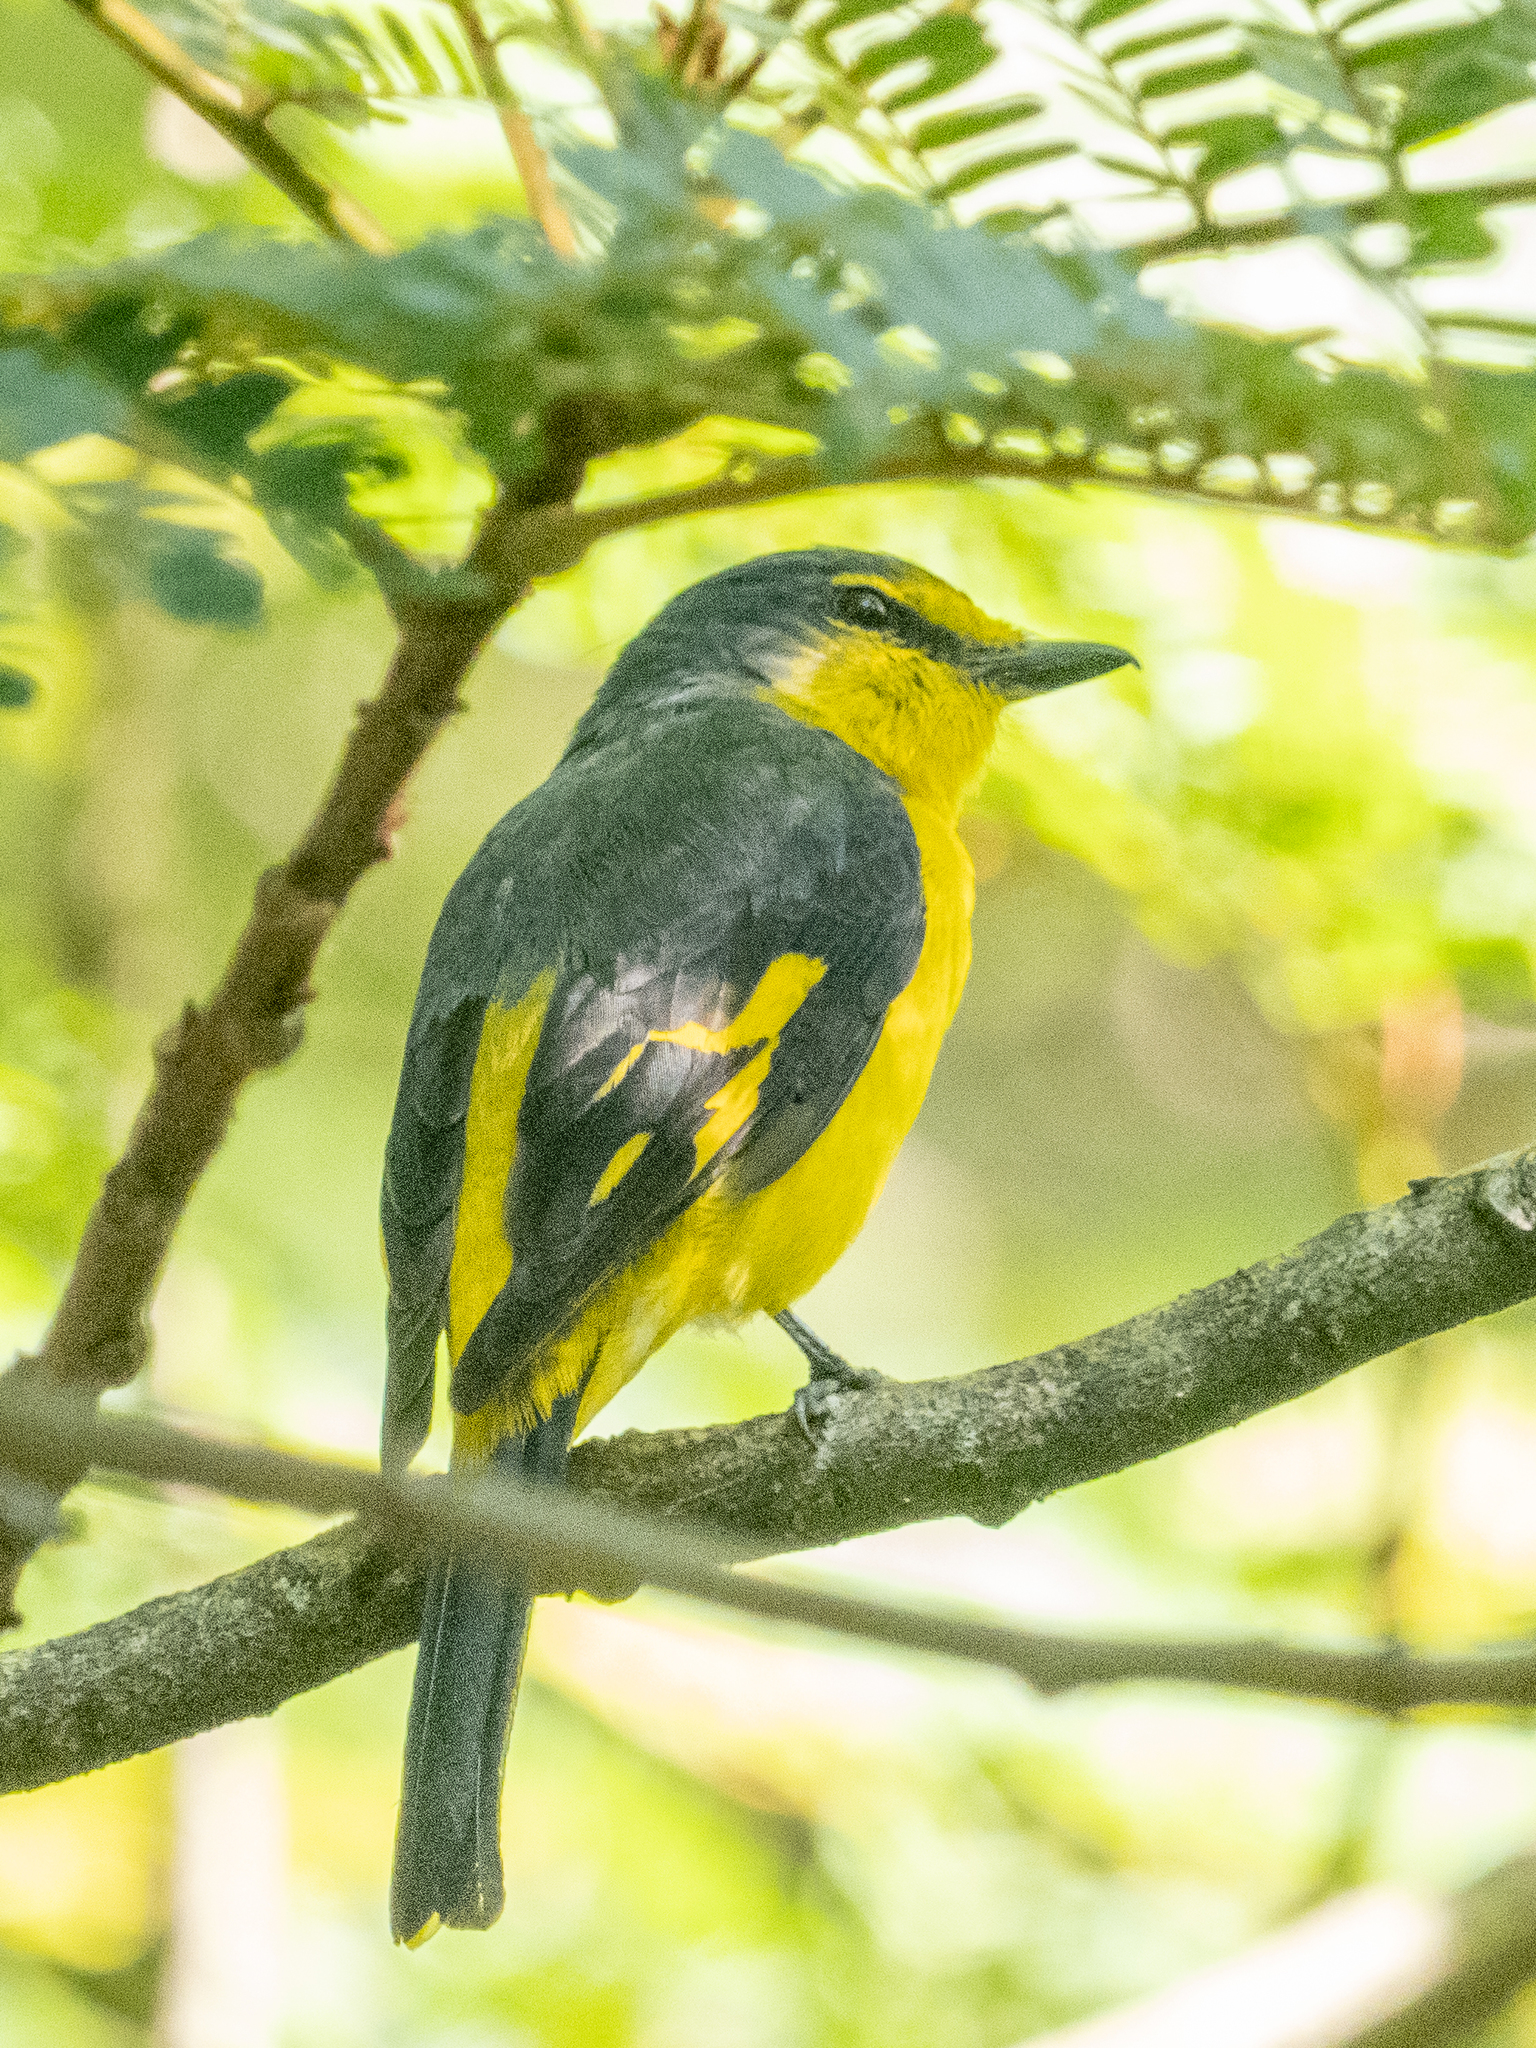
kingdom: Animalia
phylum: Chordata
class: Aves
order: Passeriformes
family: Campephagidae
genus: Pericrocotus
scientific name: Pericrocotus flammeus
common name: Orange minivet
